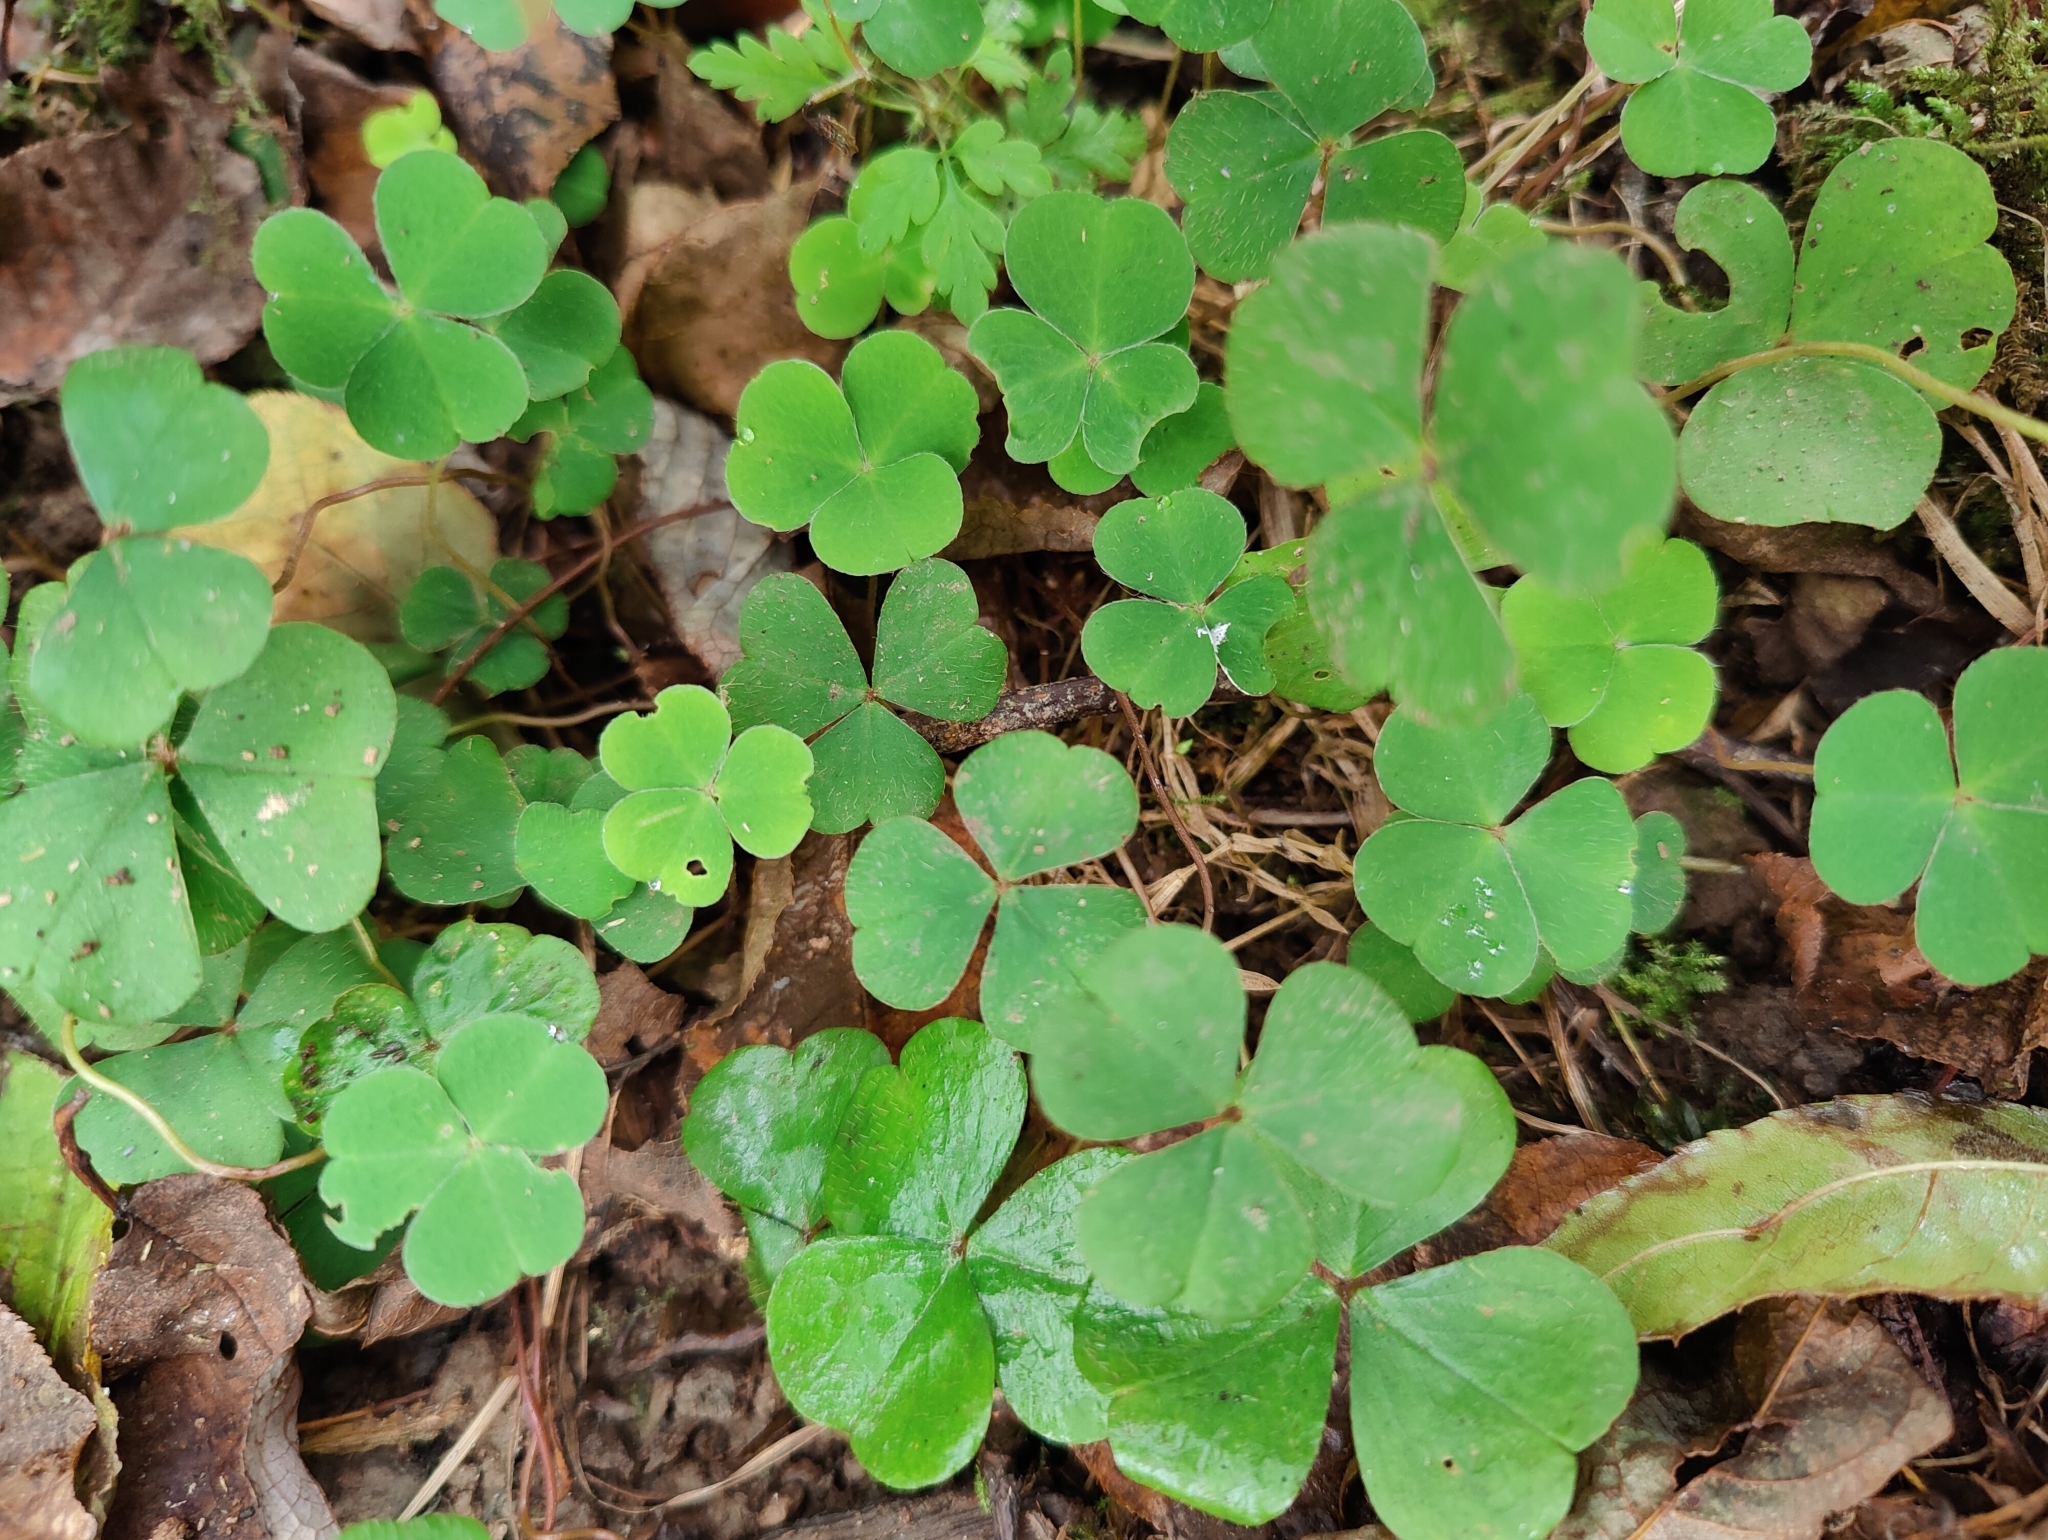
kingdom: Plantae
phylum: Tracheophyta
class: Magnoliopsida
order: Oxalidales
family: Oxalidaceae
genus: Oxalis
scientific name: Oxalis acetosella
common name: Wood-sorrel
